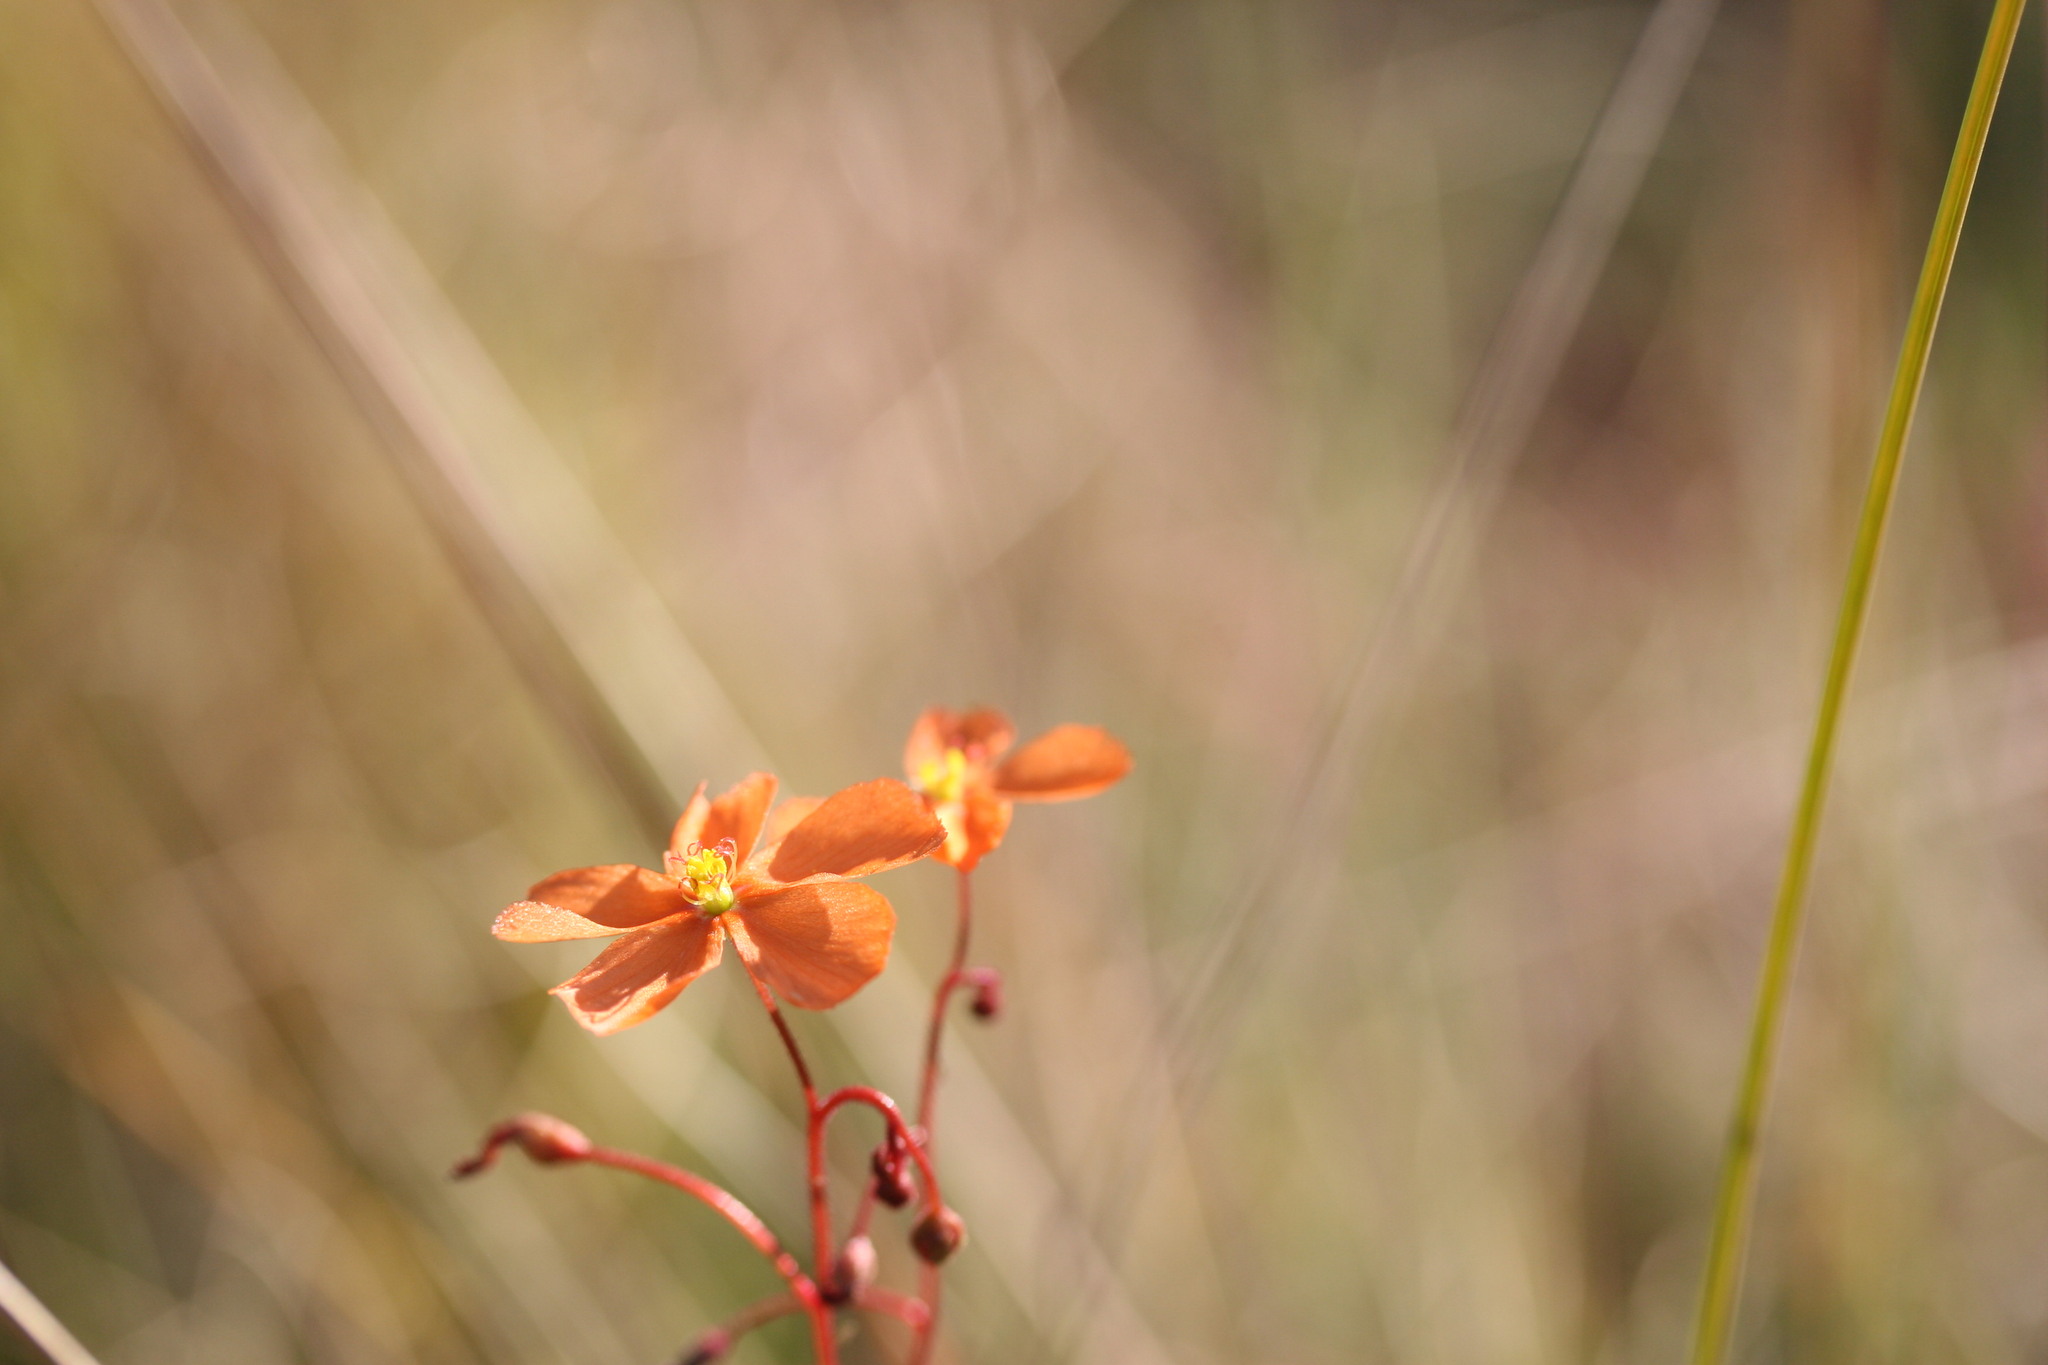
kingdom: Plantae
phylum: Tracheophyta
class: Magnoliopsida
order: Caryophyllales
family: Droseraceae
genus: Drosera
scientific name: Drosera aurantiaca
